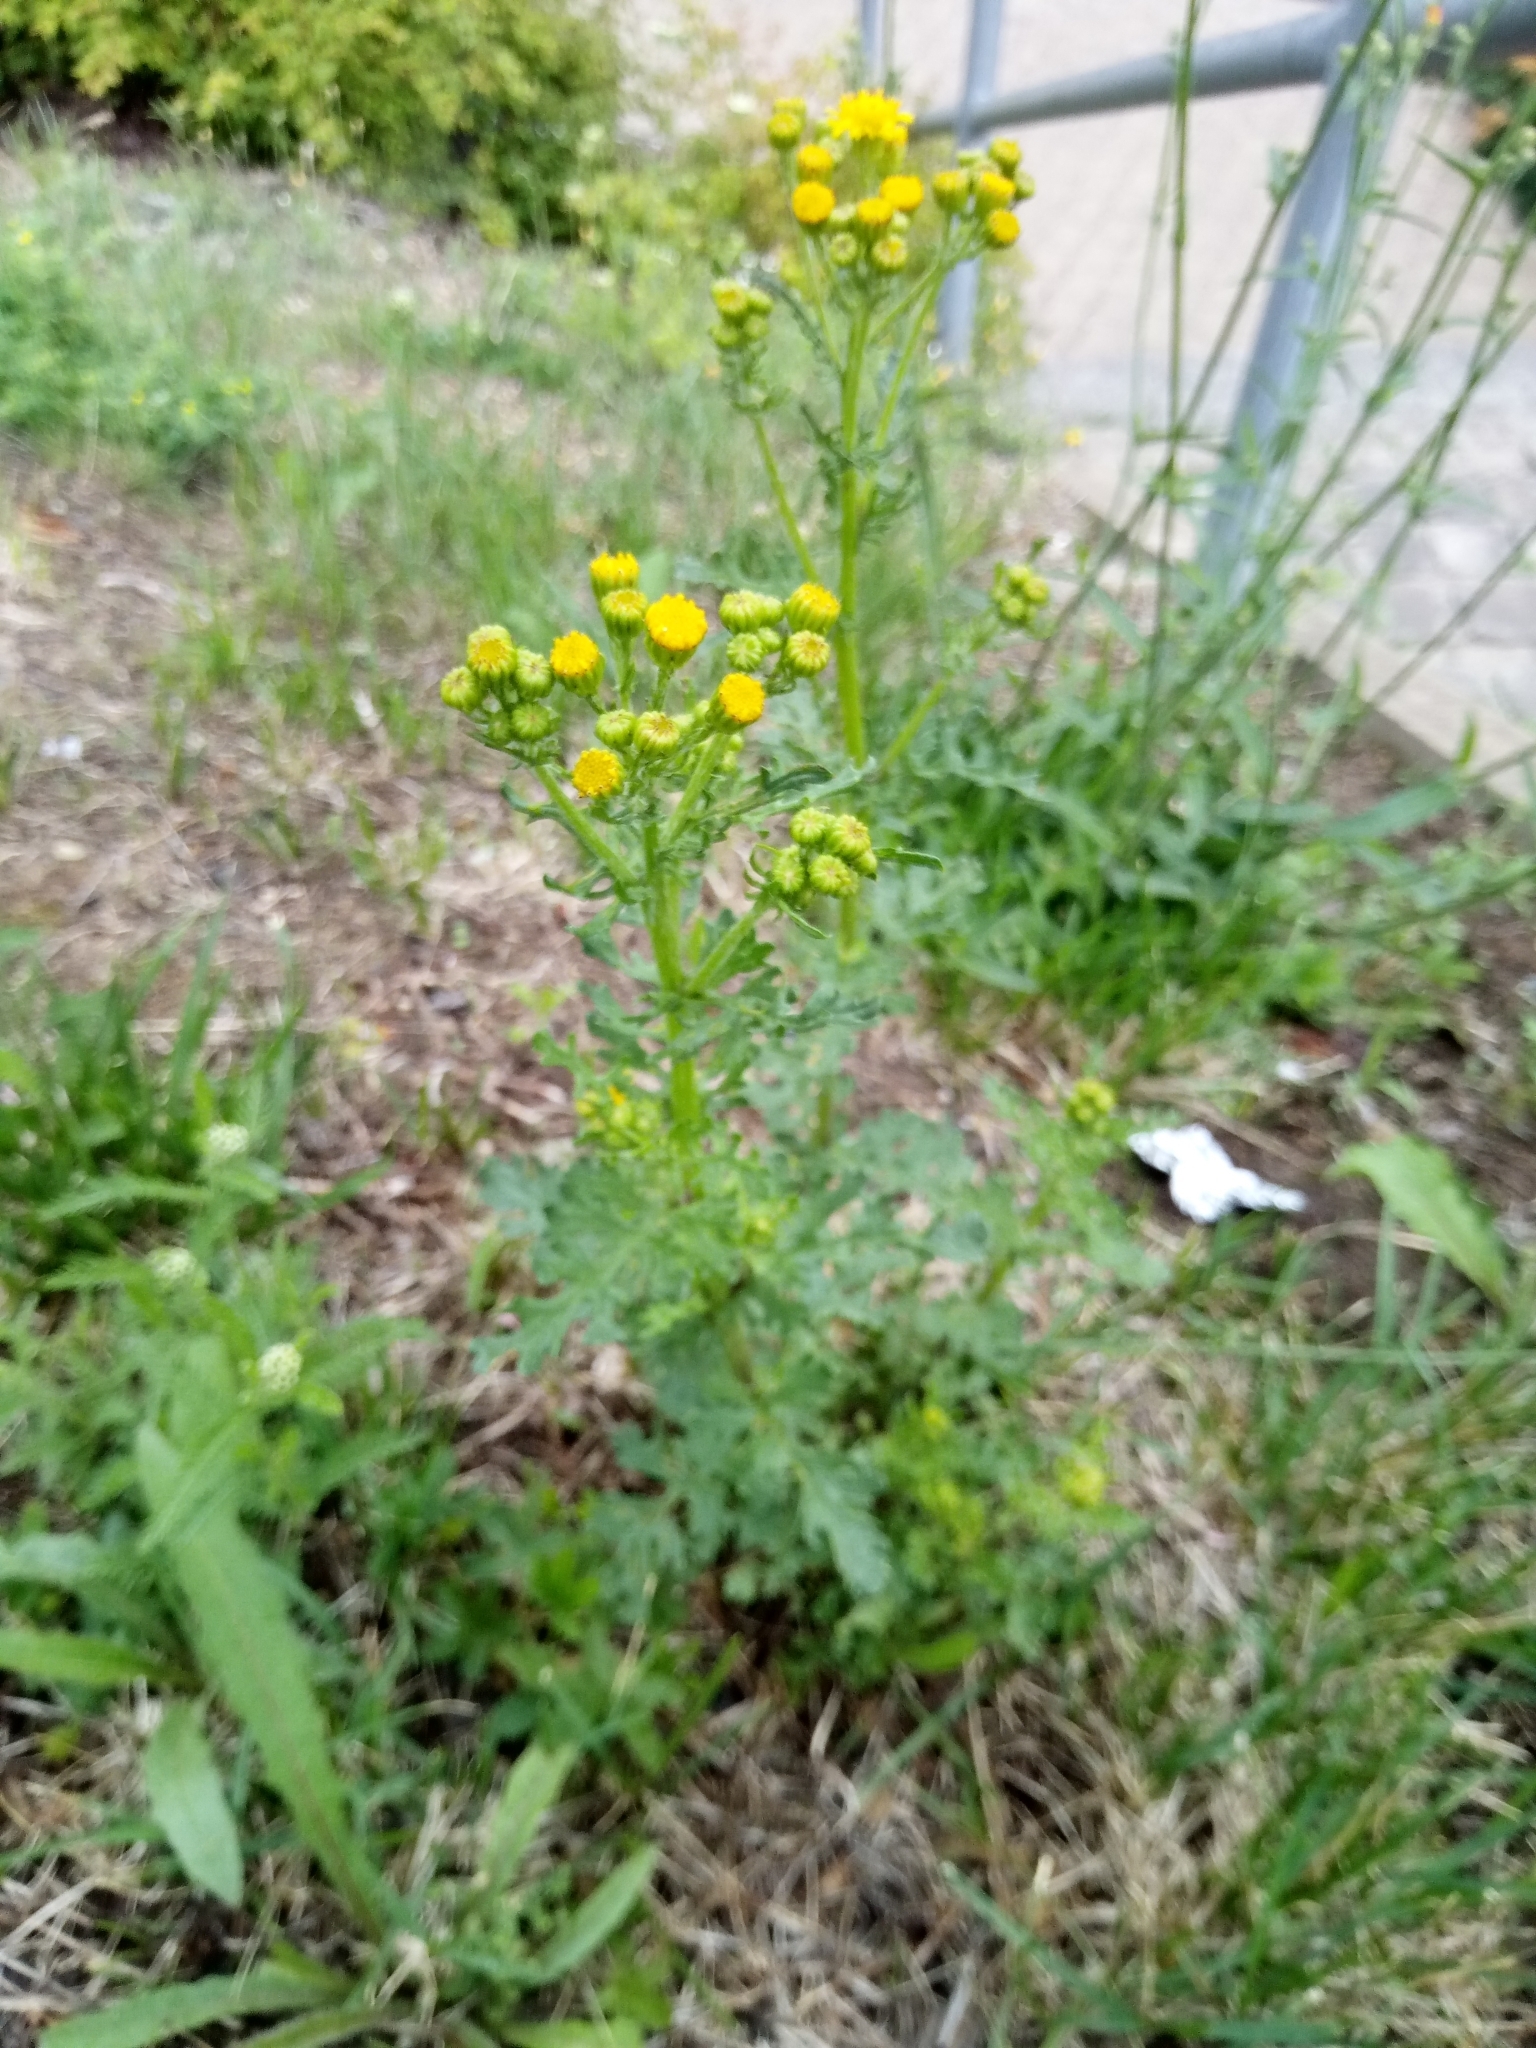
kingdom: Plantae
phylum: Tracheophyta
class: Magnoliopsida
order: Asterales
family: Asteraceae
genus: Jacobaea
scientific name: Jacobaea vulgaris
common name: Stinking willie
